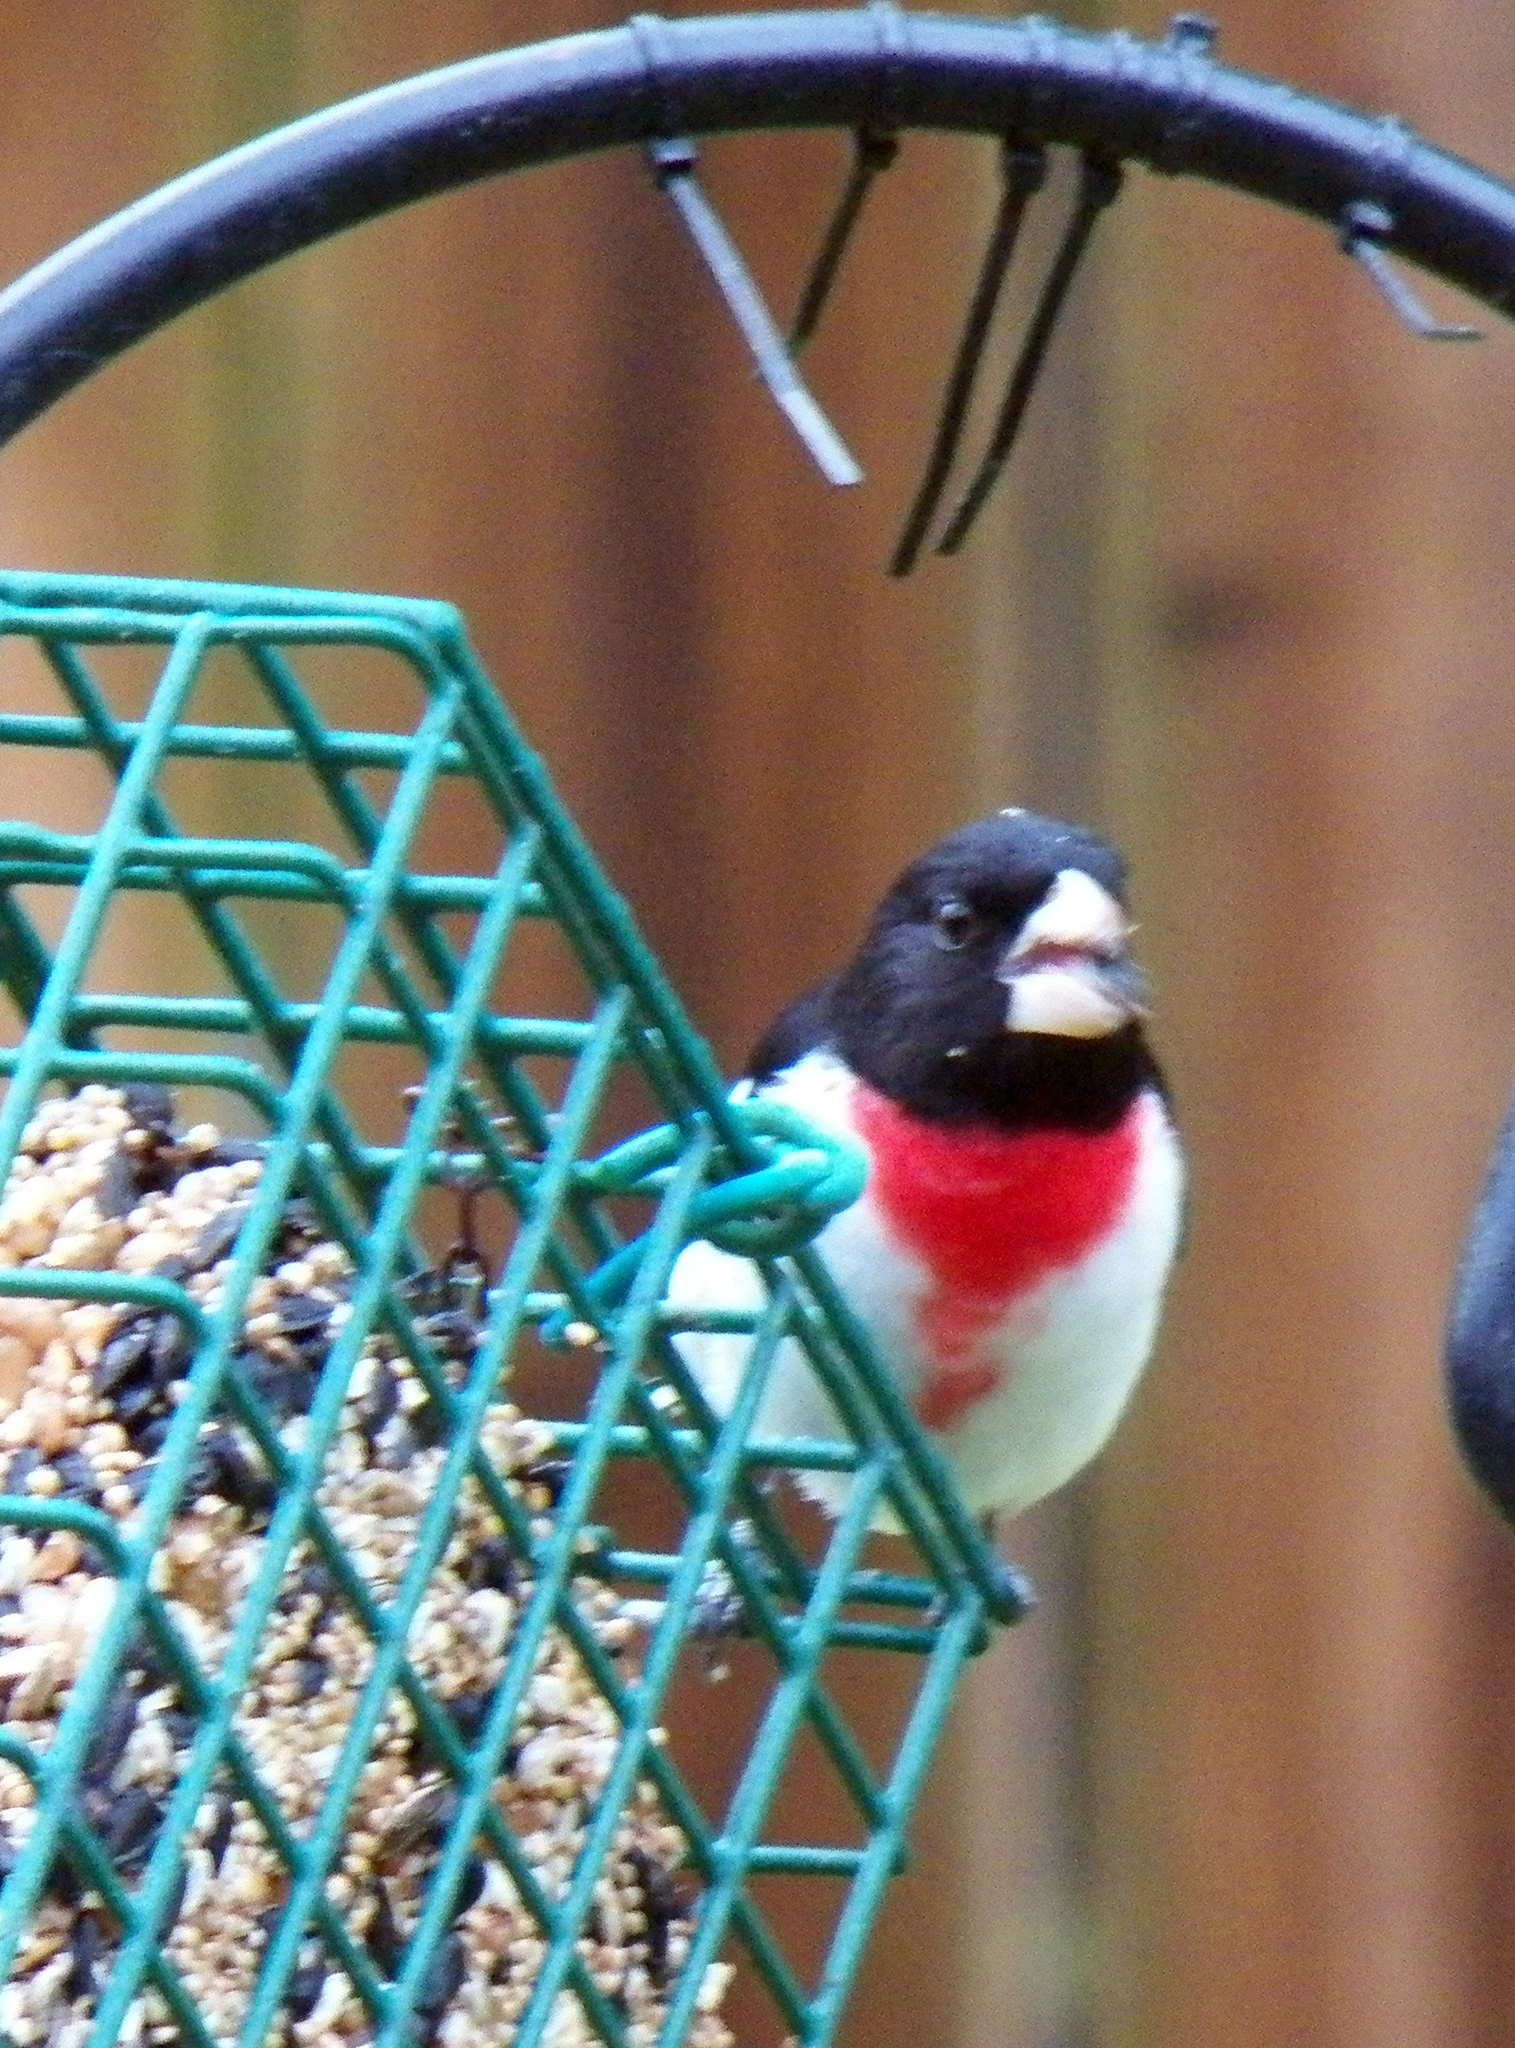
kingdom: Animalia
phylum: Chordata
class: Aves
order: Passeriformes
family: Cardinalidae
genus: Pheucticus
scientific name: Pheucticus ludovicianus
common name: Rose-breasted grosbeak
